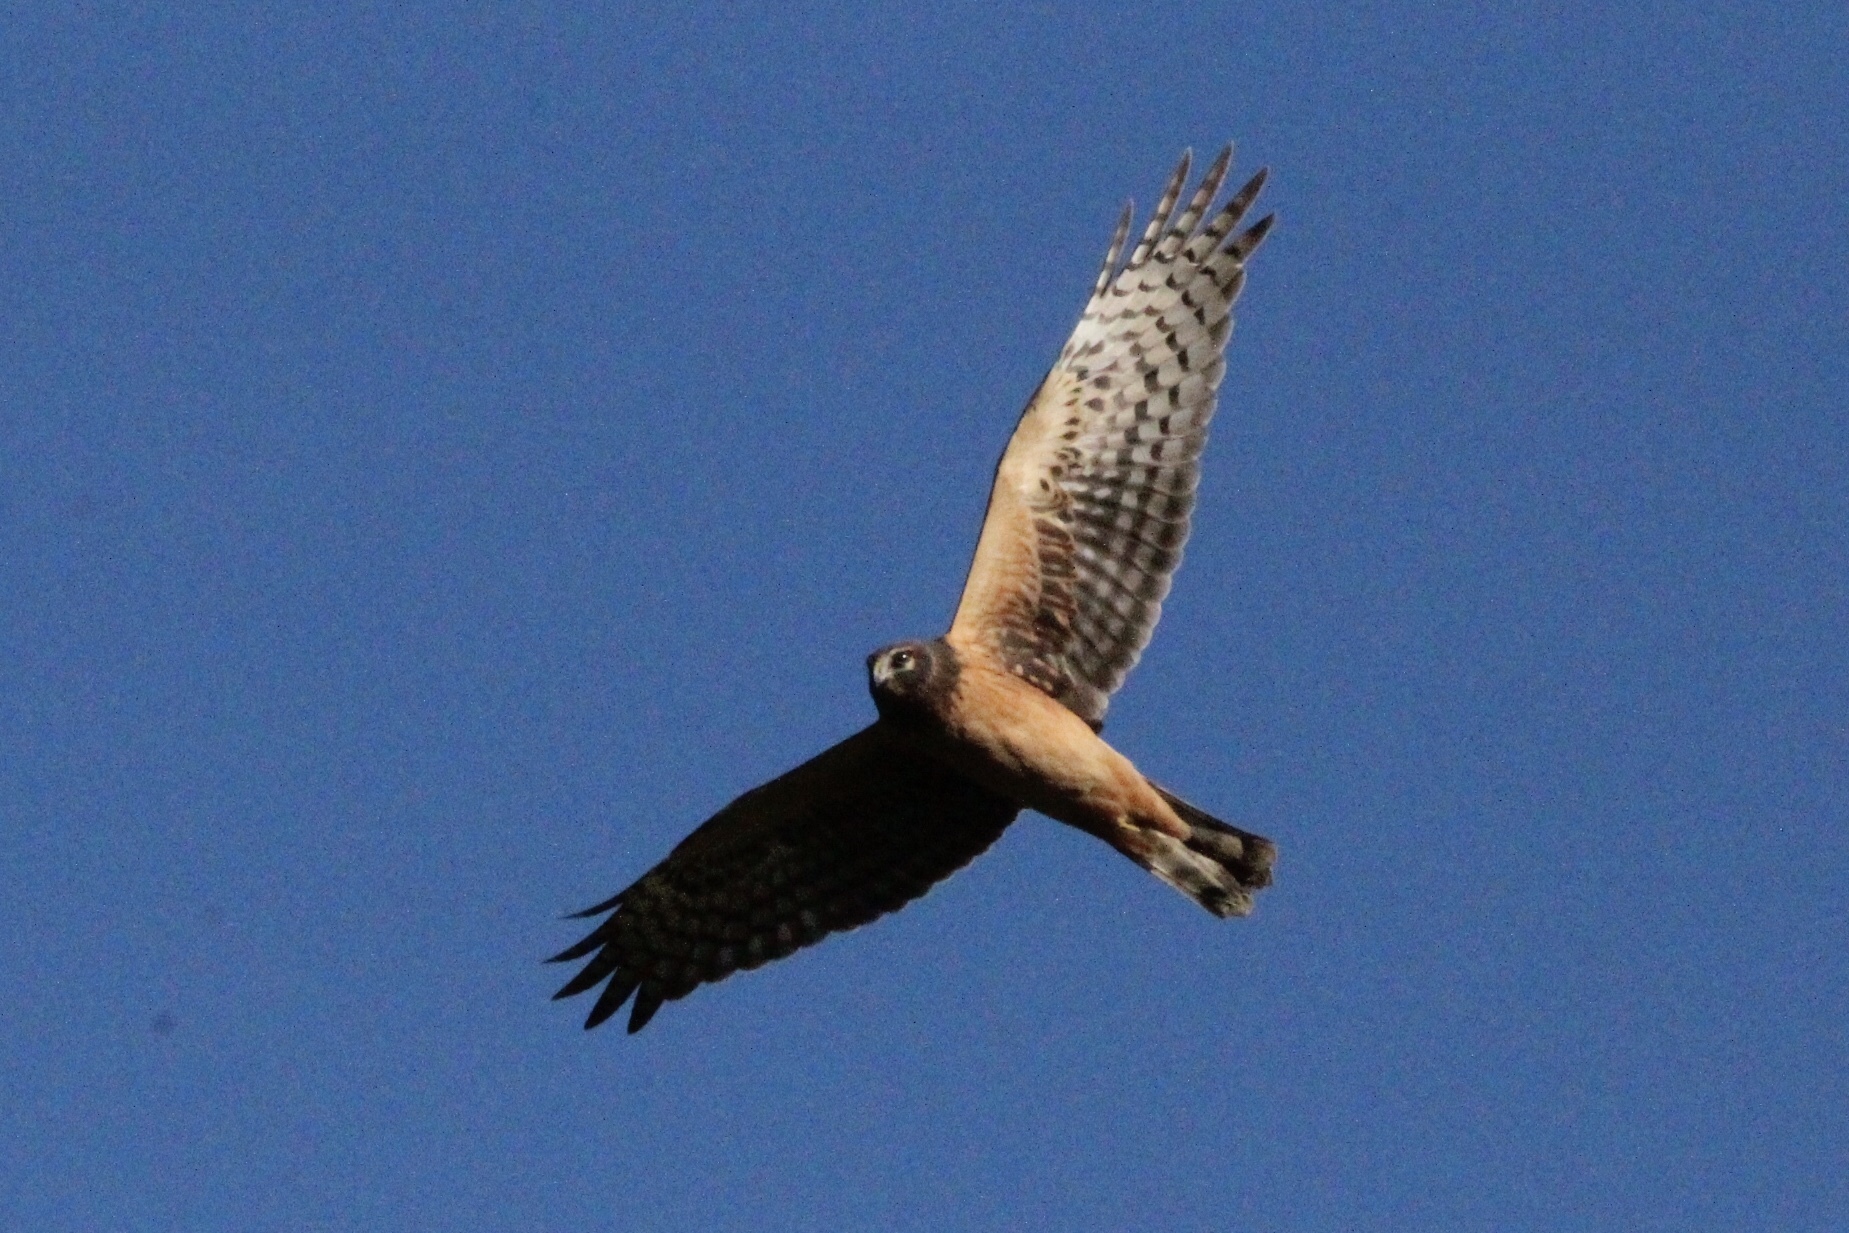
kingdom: Animalia
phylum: Chordata
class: Aves
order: Accipitriformes
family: Accipitridae
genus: Circus
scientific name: Circus cyaneus
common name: Hen harrier
